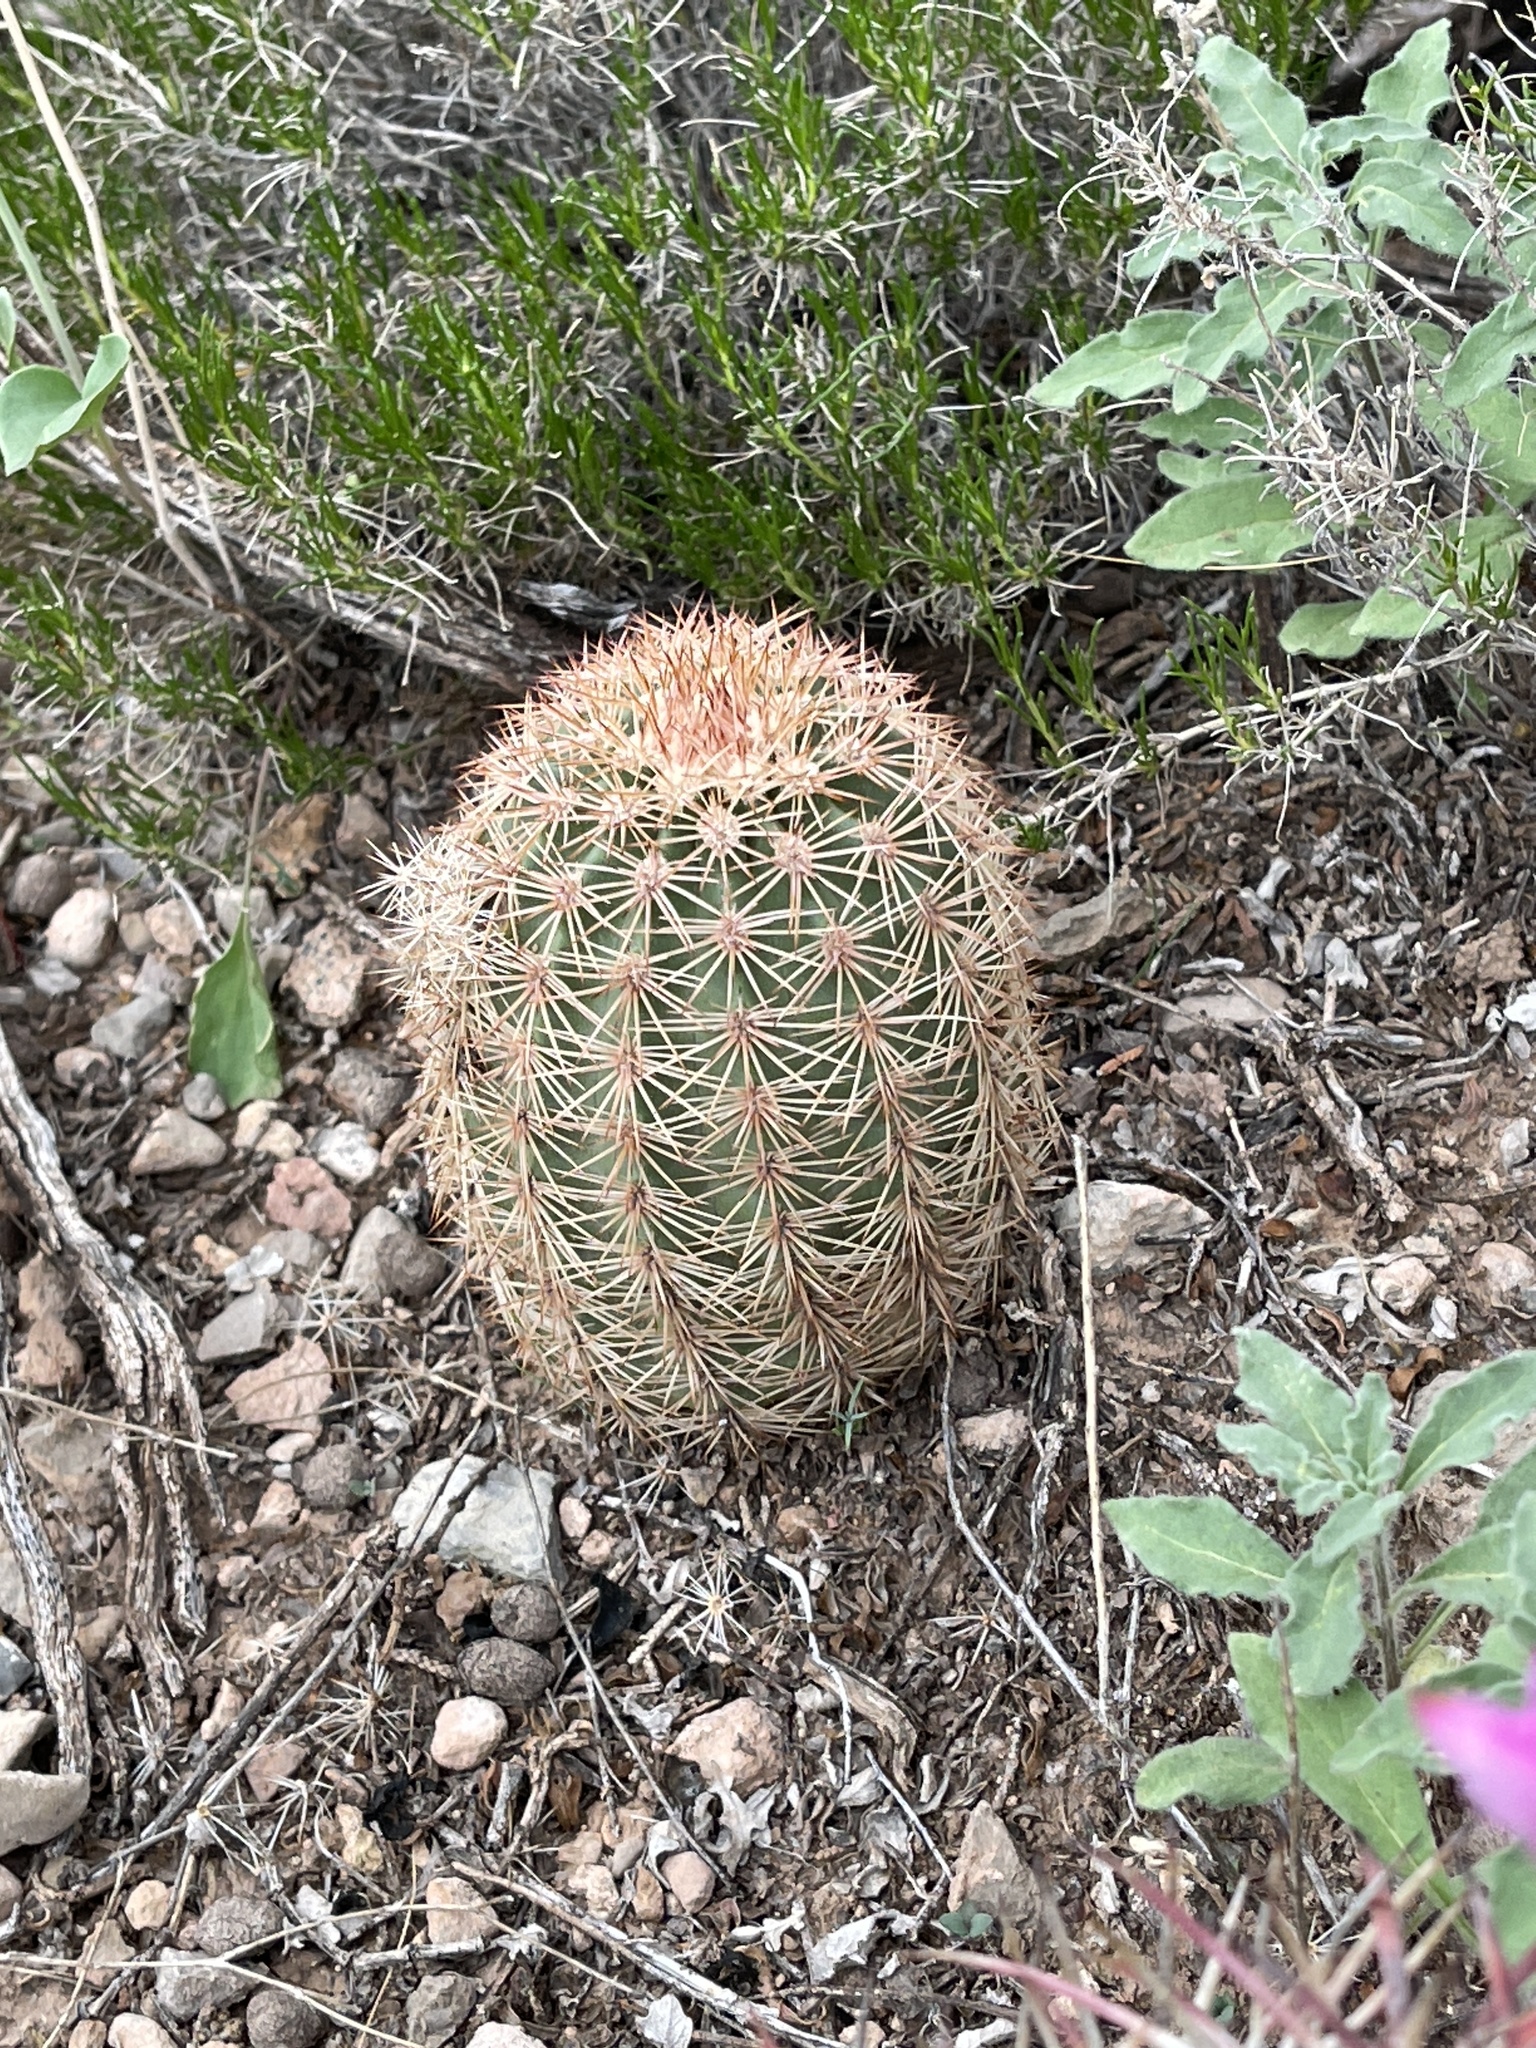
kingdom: Plantae
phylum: Tracheophyta
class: Magnoliopsida
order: Caryophyllales
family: Cactaceae
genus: Echinocereus
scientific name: Echinocereus dasyacanthus
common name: Spiny hedgehog cactus
